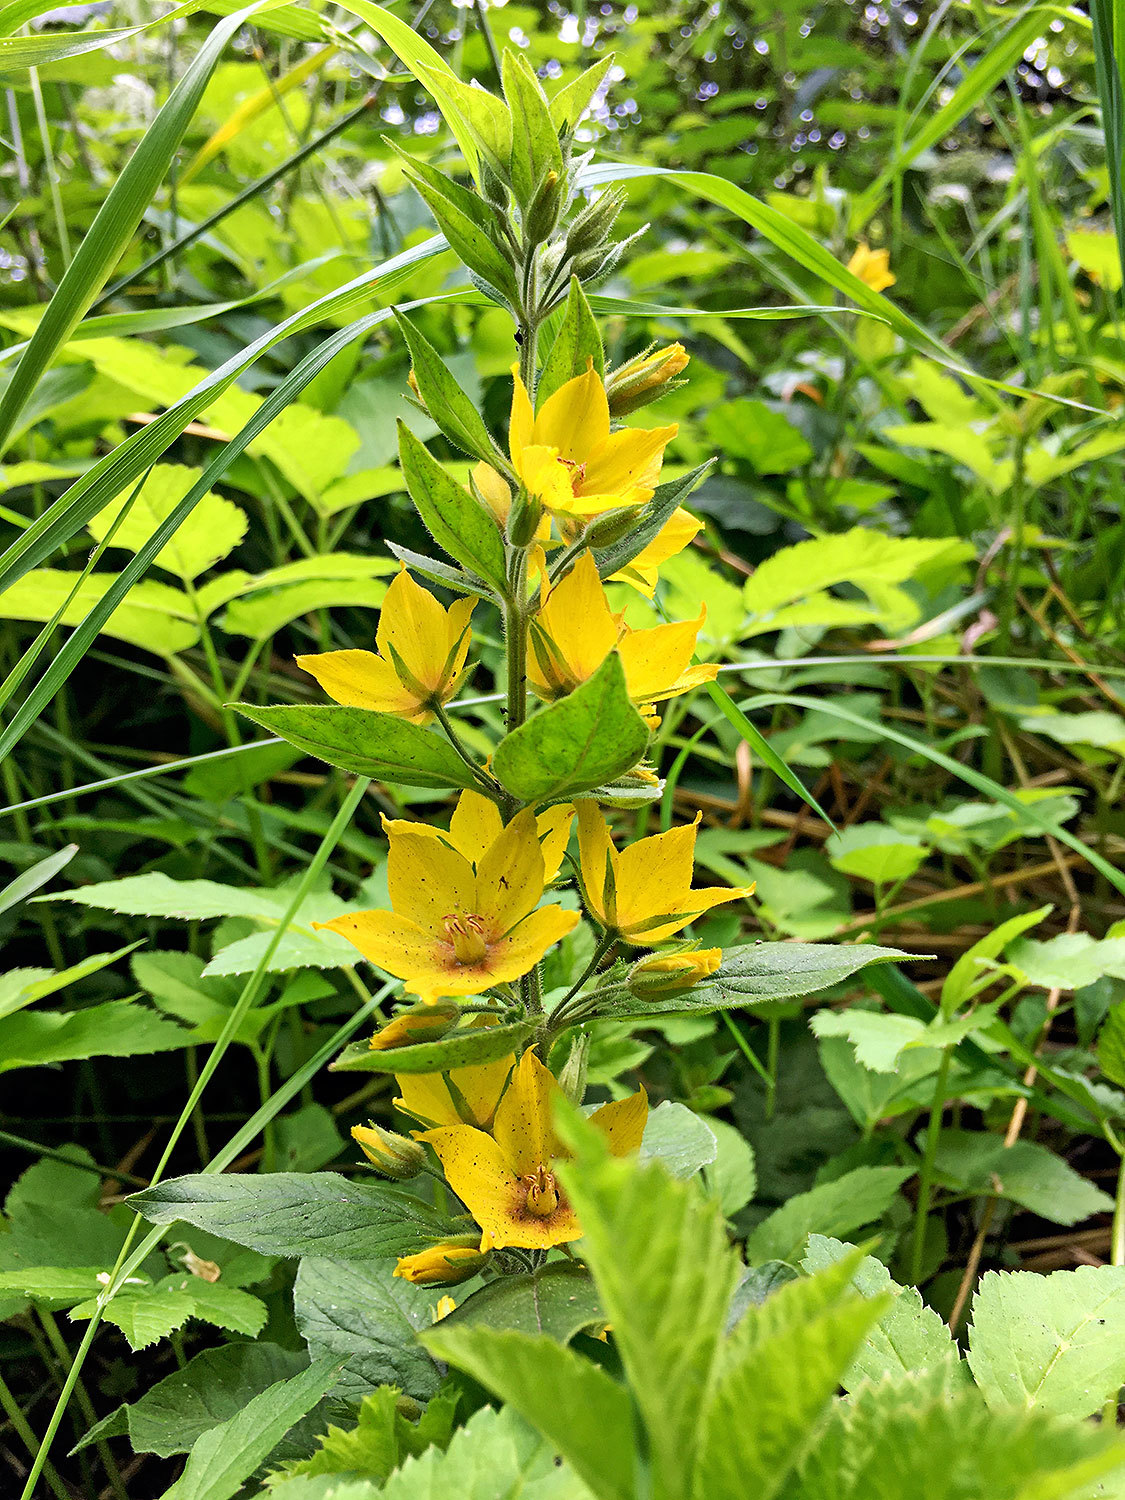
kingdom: Plantae
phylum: Tracheophyta
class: Magnoliopsida
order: Ericales
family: Primulaceae
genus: Lysimachia
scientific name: Lysimachia punctata
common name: Dotted loosestrife
